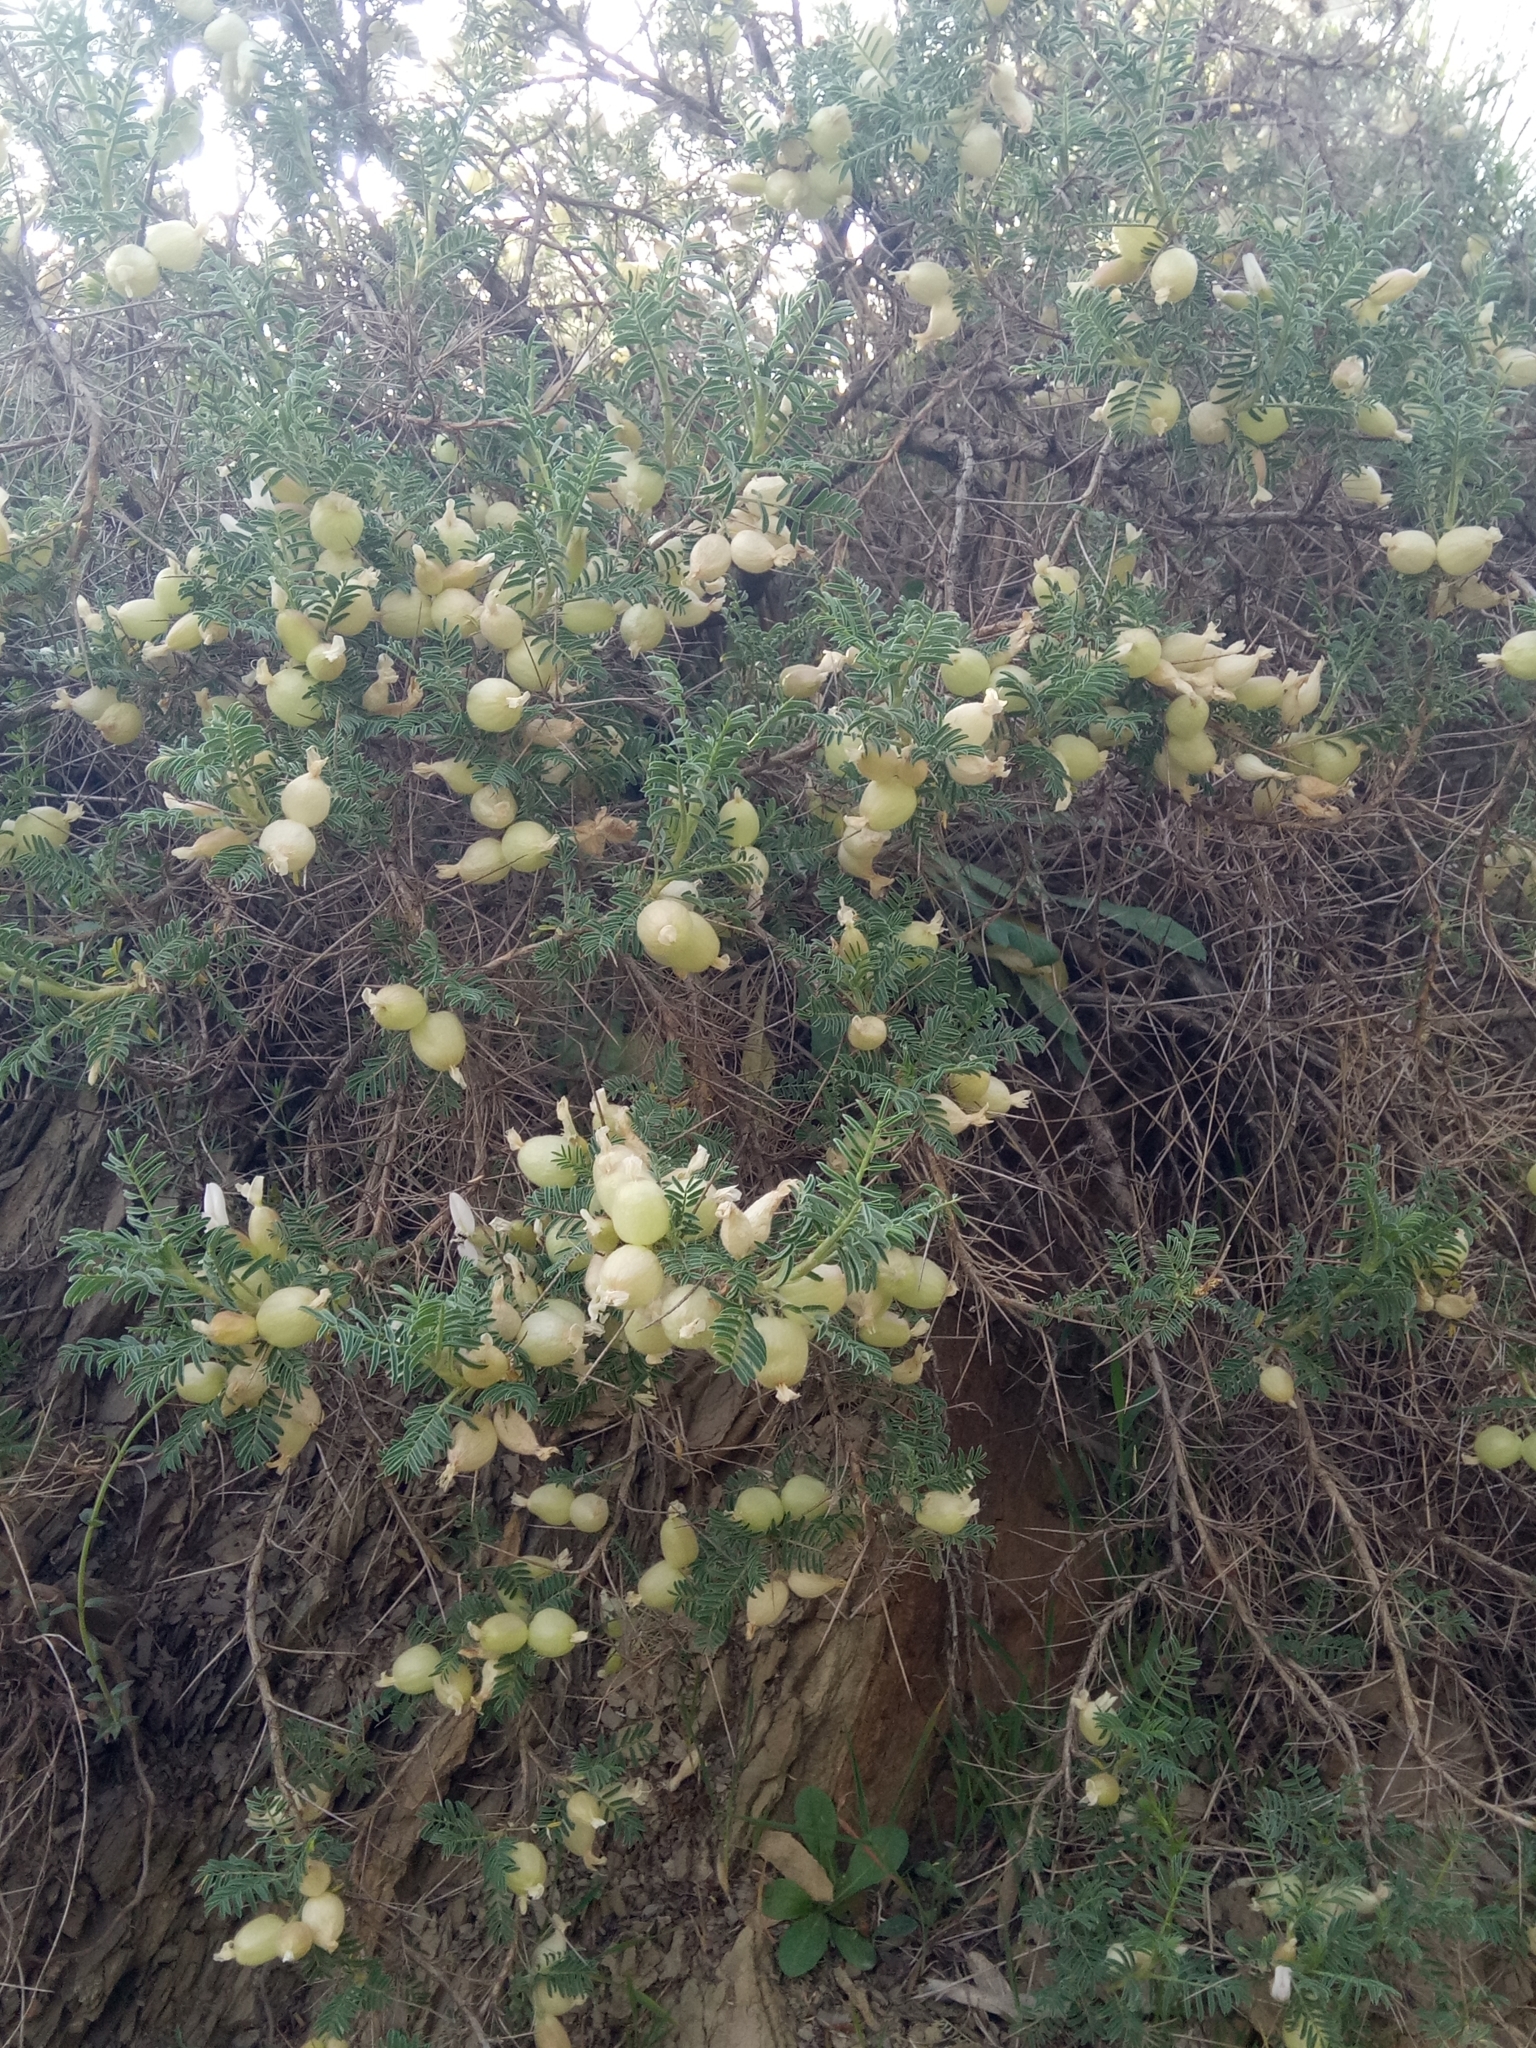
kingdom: Plantae
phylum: Tracheophyta
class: Magnoliopsida
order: Fabales
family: Fabaceae
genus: Astragalus
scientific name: Astragalus armatus
